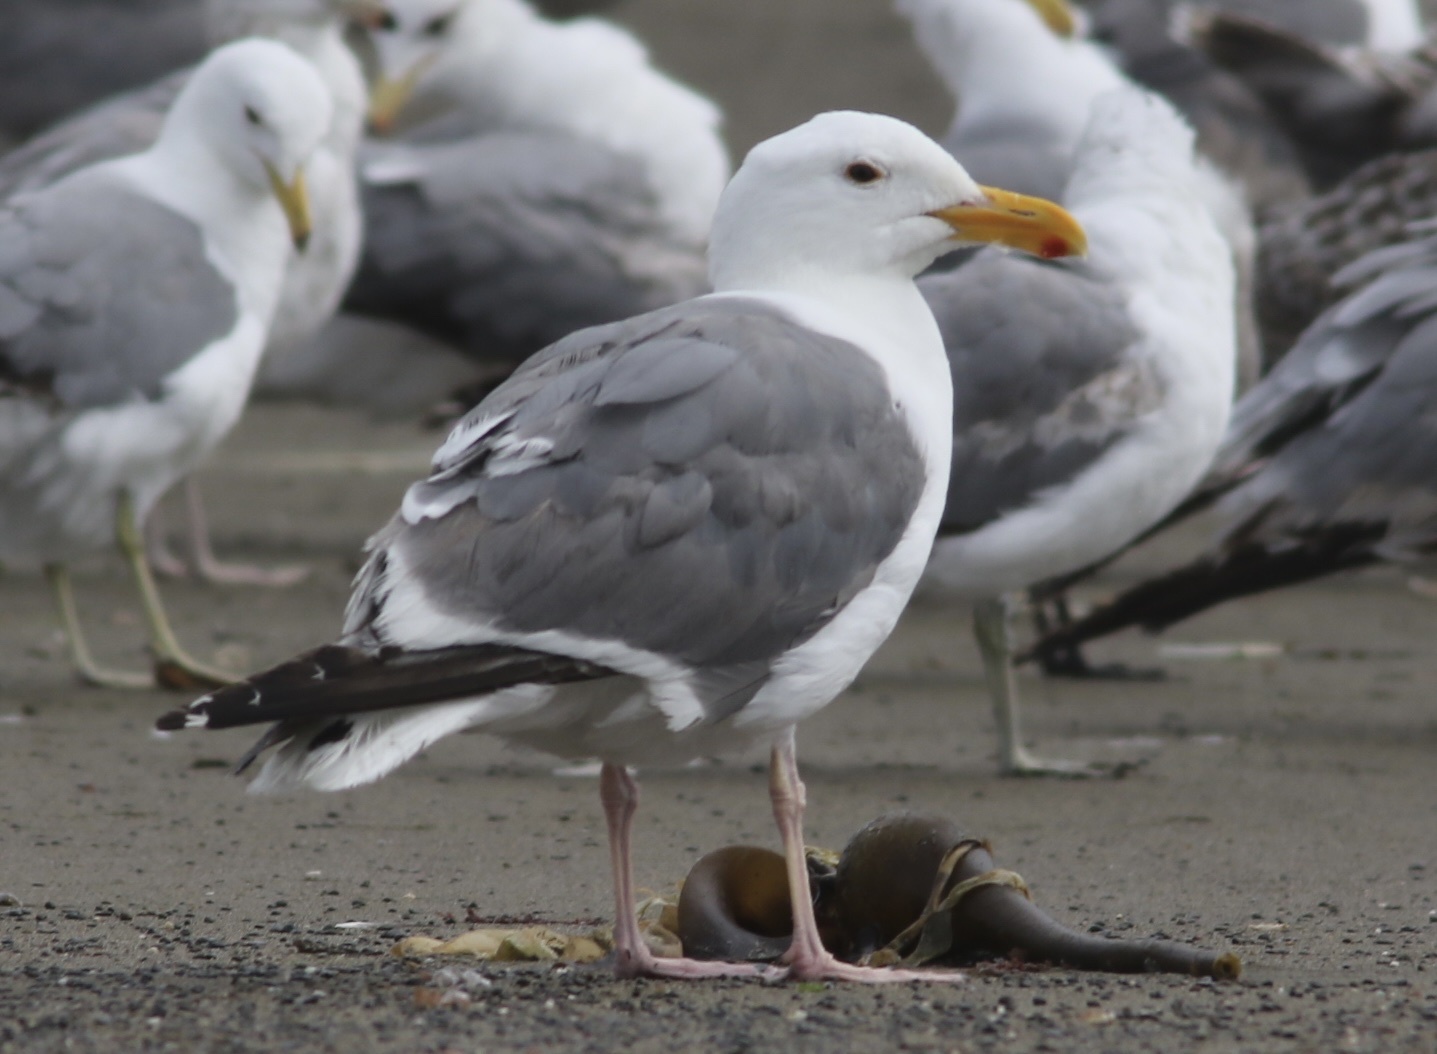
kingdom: Animalia
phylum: Chordata
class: Aves
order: Charadriiformes
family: Laridae
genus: Larus
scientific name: Larus occidentalis
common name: Western gull
